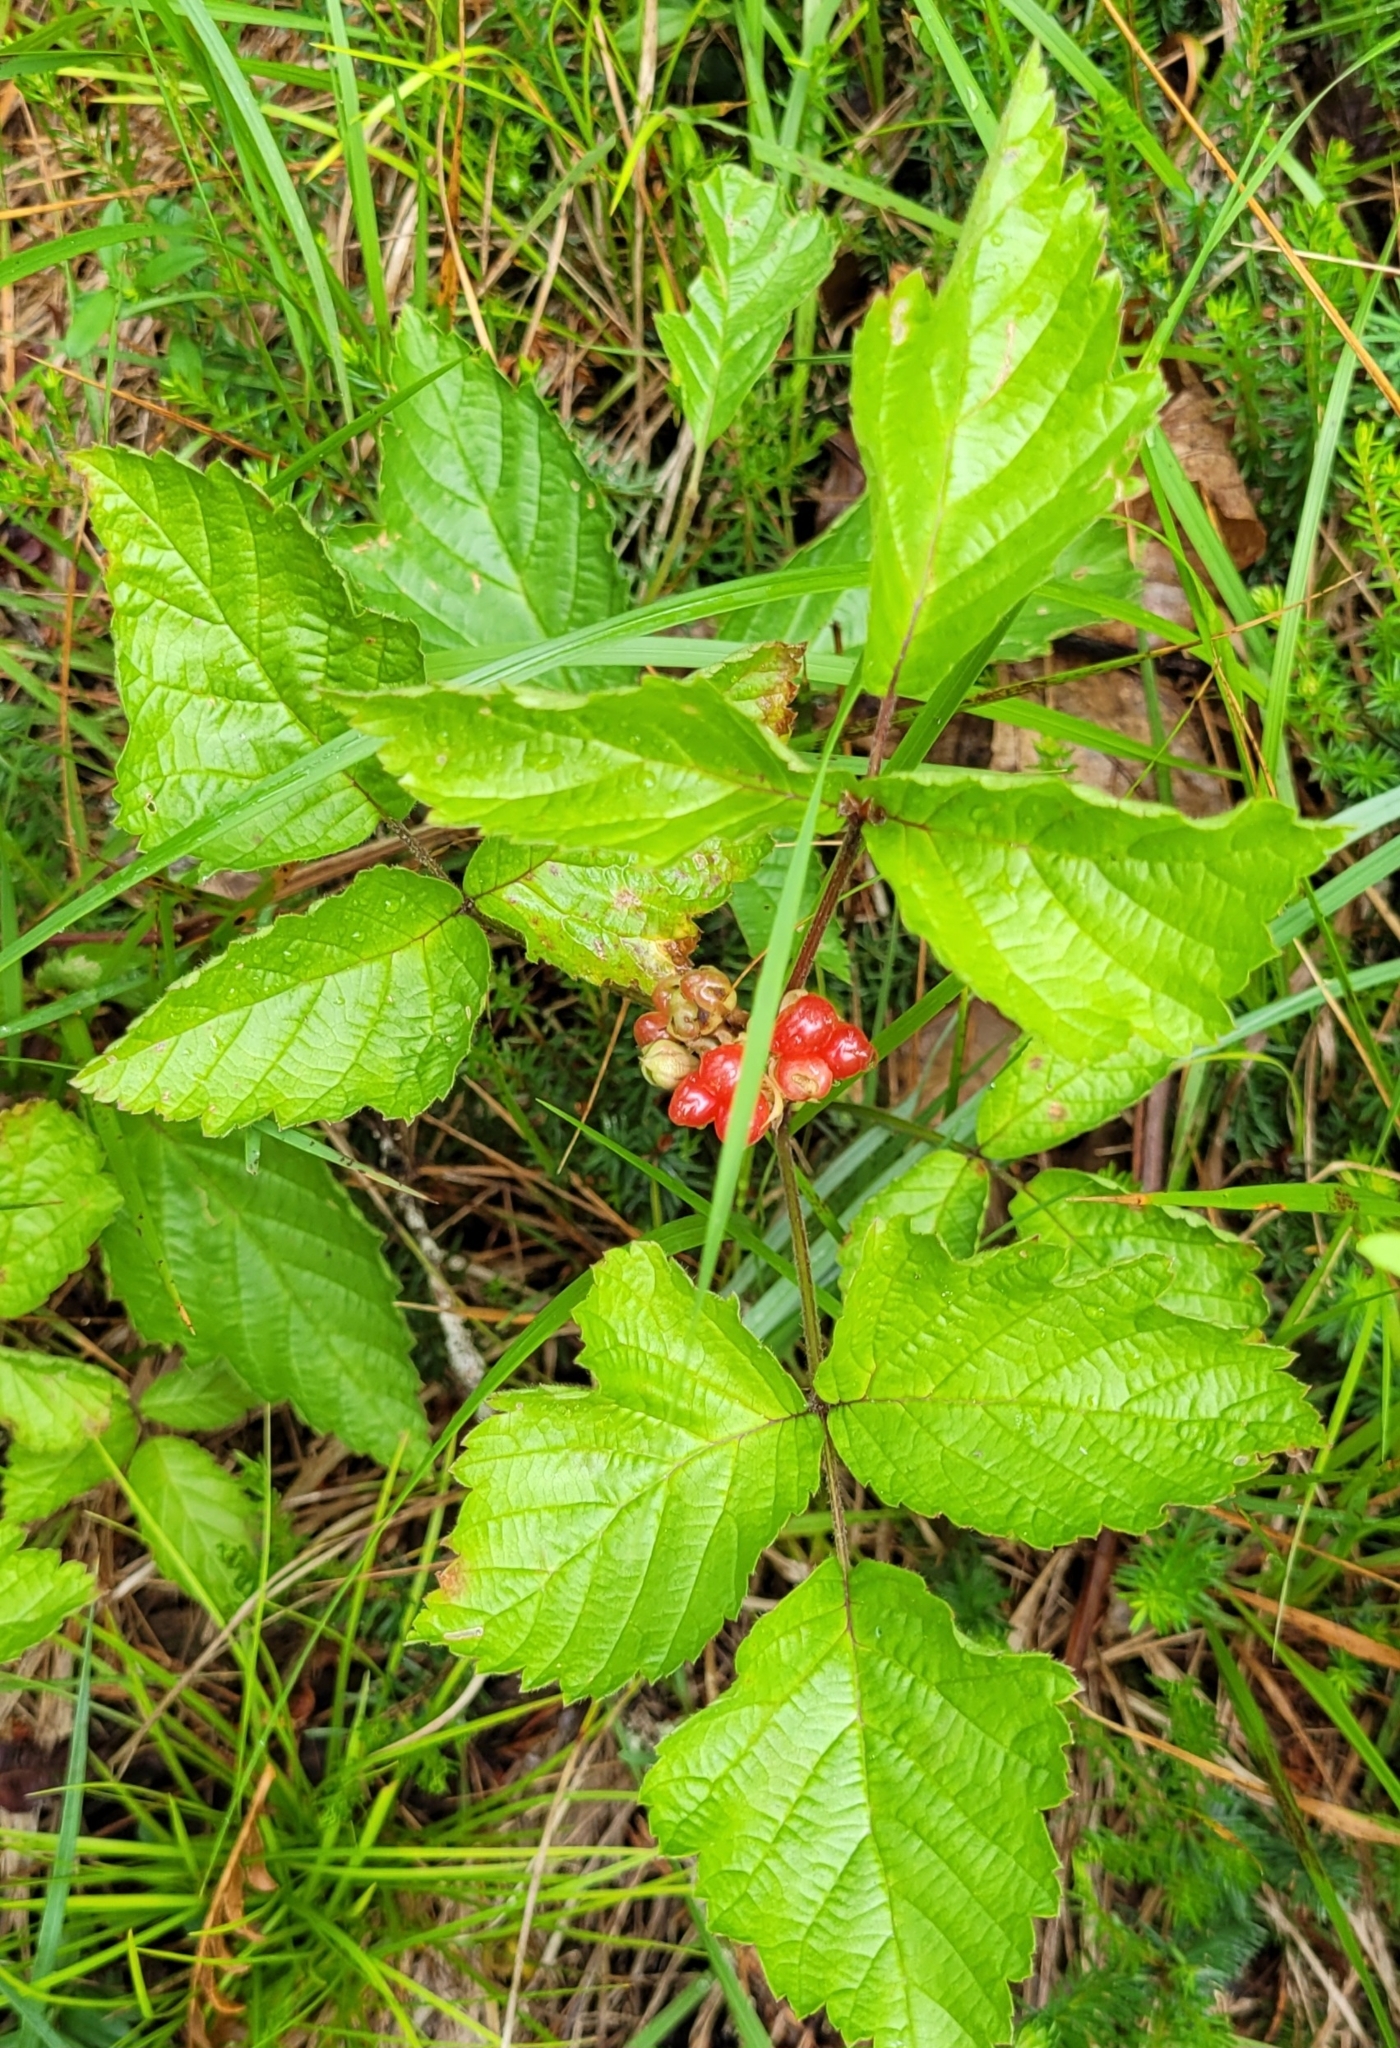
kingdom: Plantae
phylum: Tracheophyta
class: Magnoliopsida
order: Rosales
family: Rosaceae
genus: Rubus
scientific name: Rubus saxatilis
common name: Stone bramble
